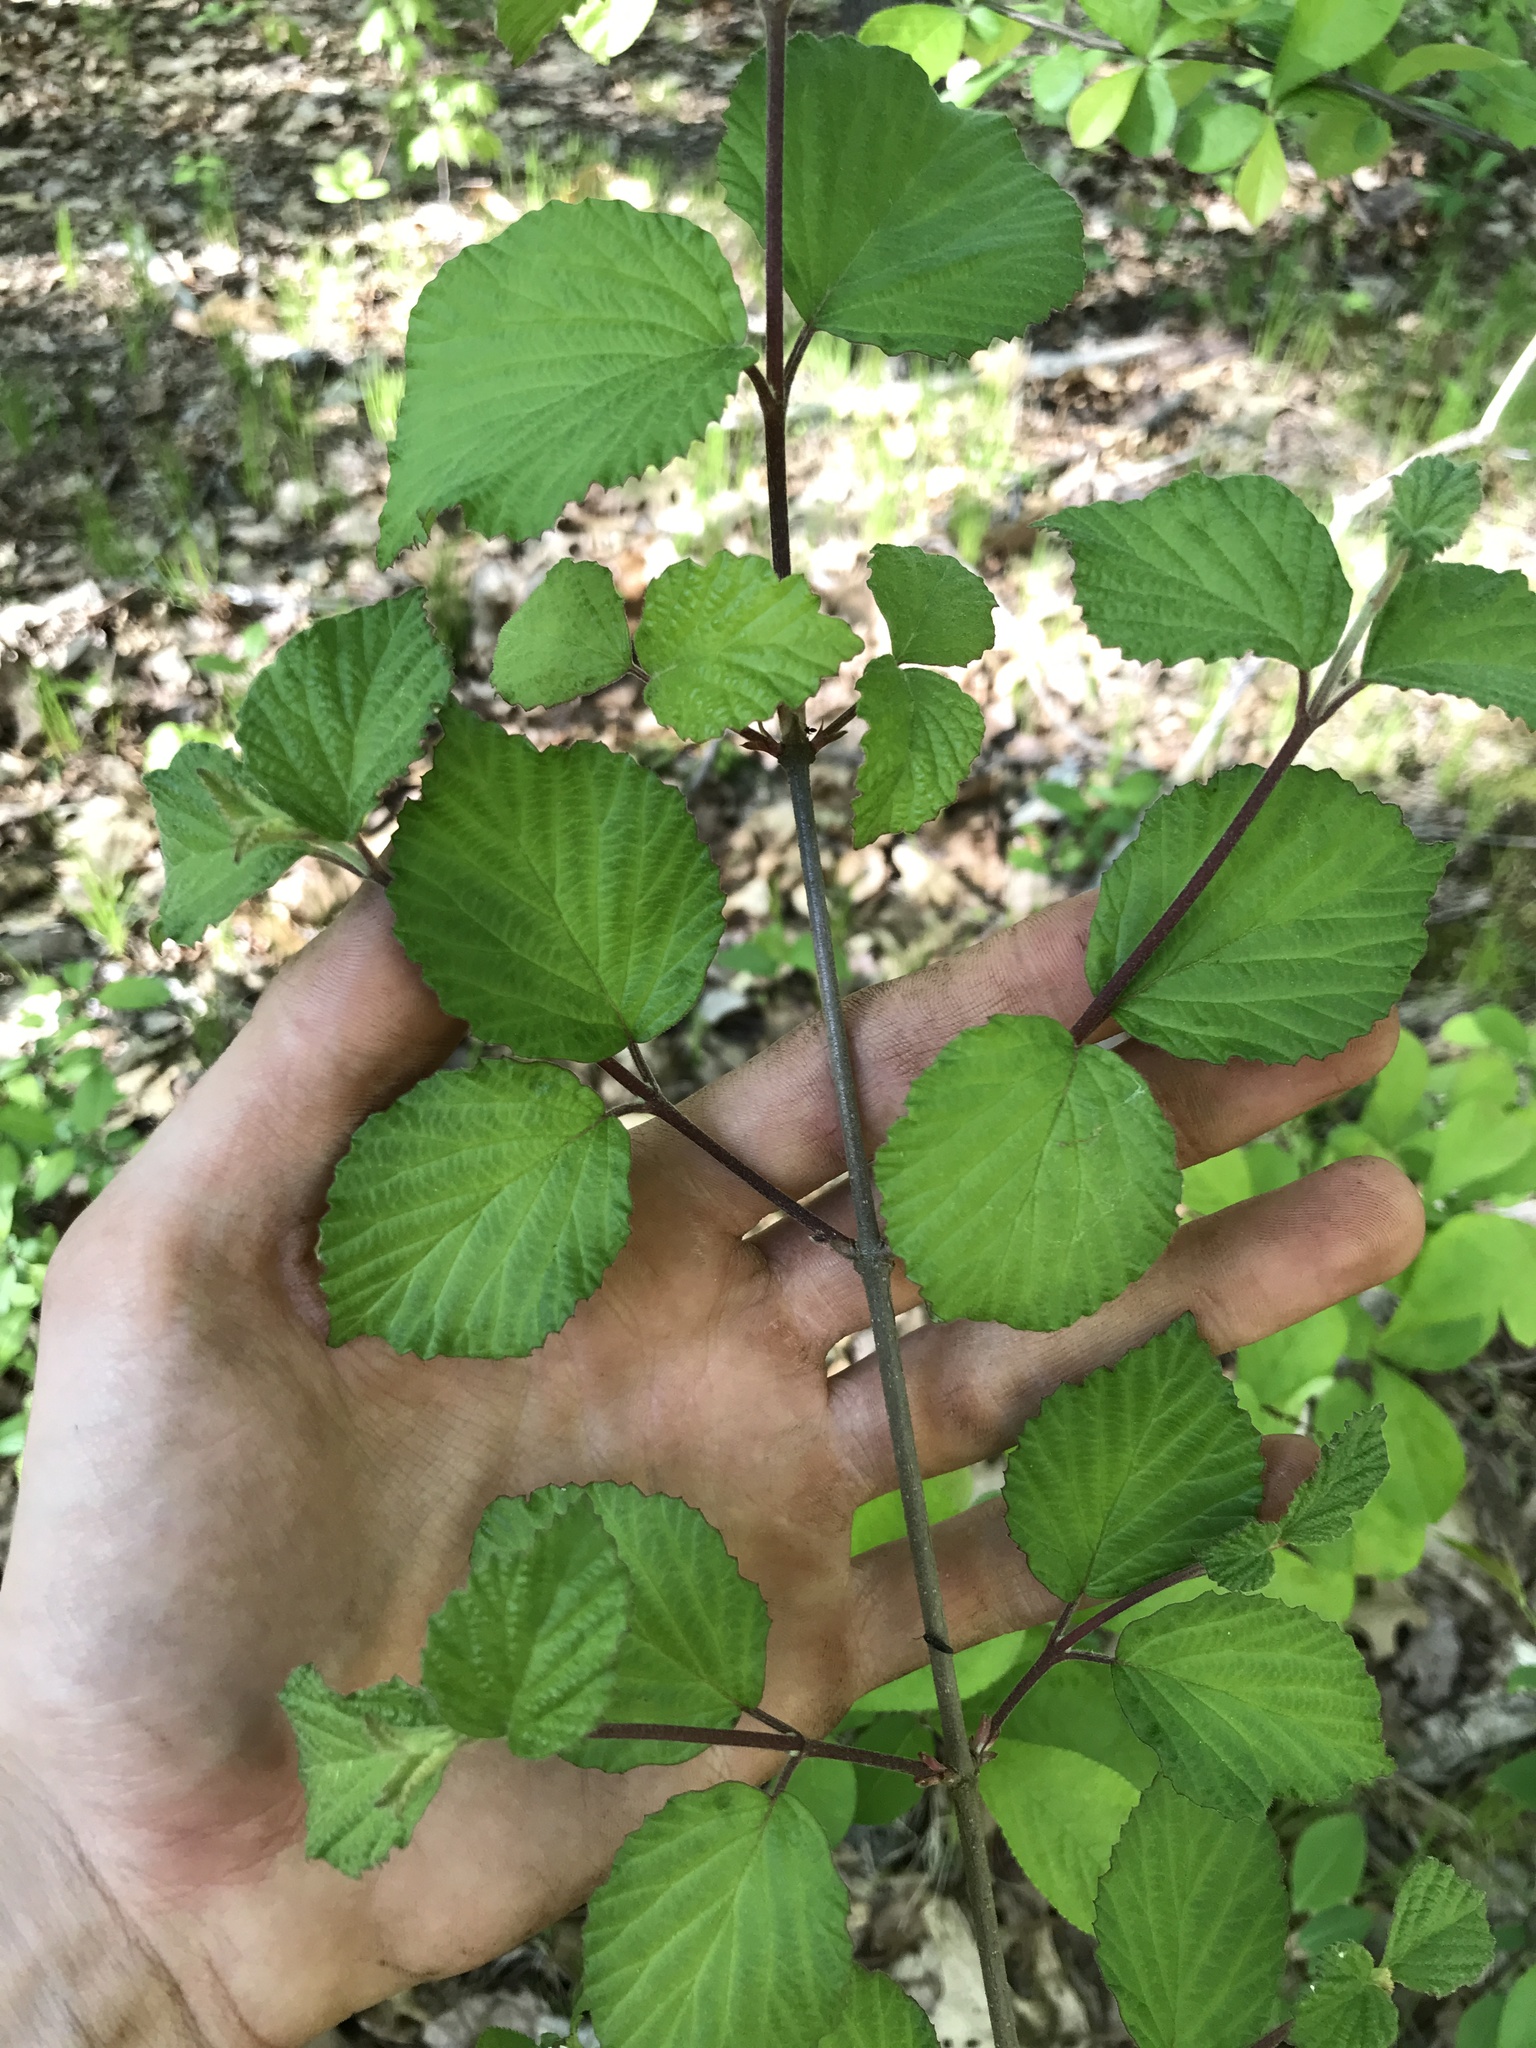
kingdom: Plantae
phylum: Tracheophyta
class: Magnoliopsida
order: Dipsacales
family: Viburnaceae
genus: Viburnum
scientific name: Viburnum dilatatum
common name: Linden arrowwood
